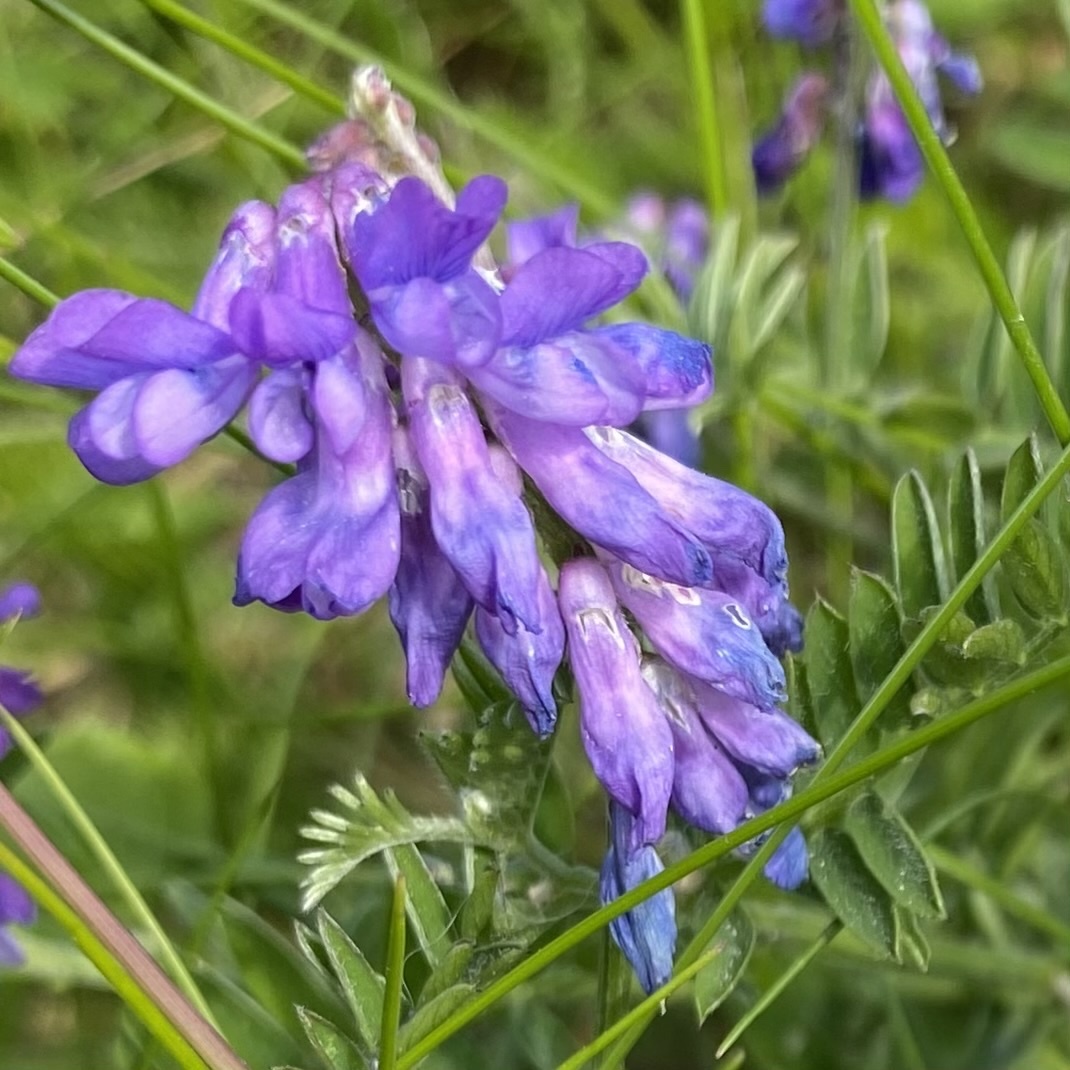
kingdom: Plantae
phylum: Tracheophyta
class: Magnoliopsida
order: Fabales
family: Fabaceae
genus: Vicia
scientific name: Vicia cracca
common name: Bird vetch
